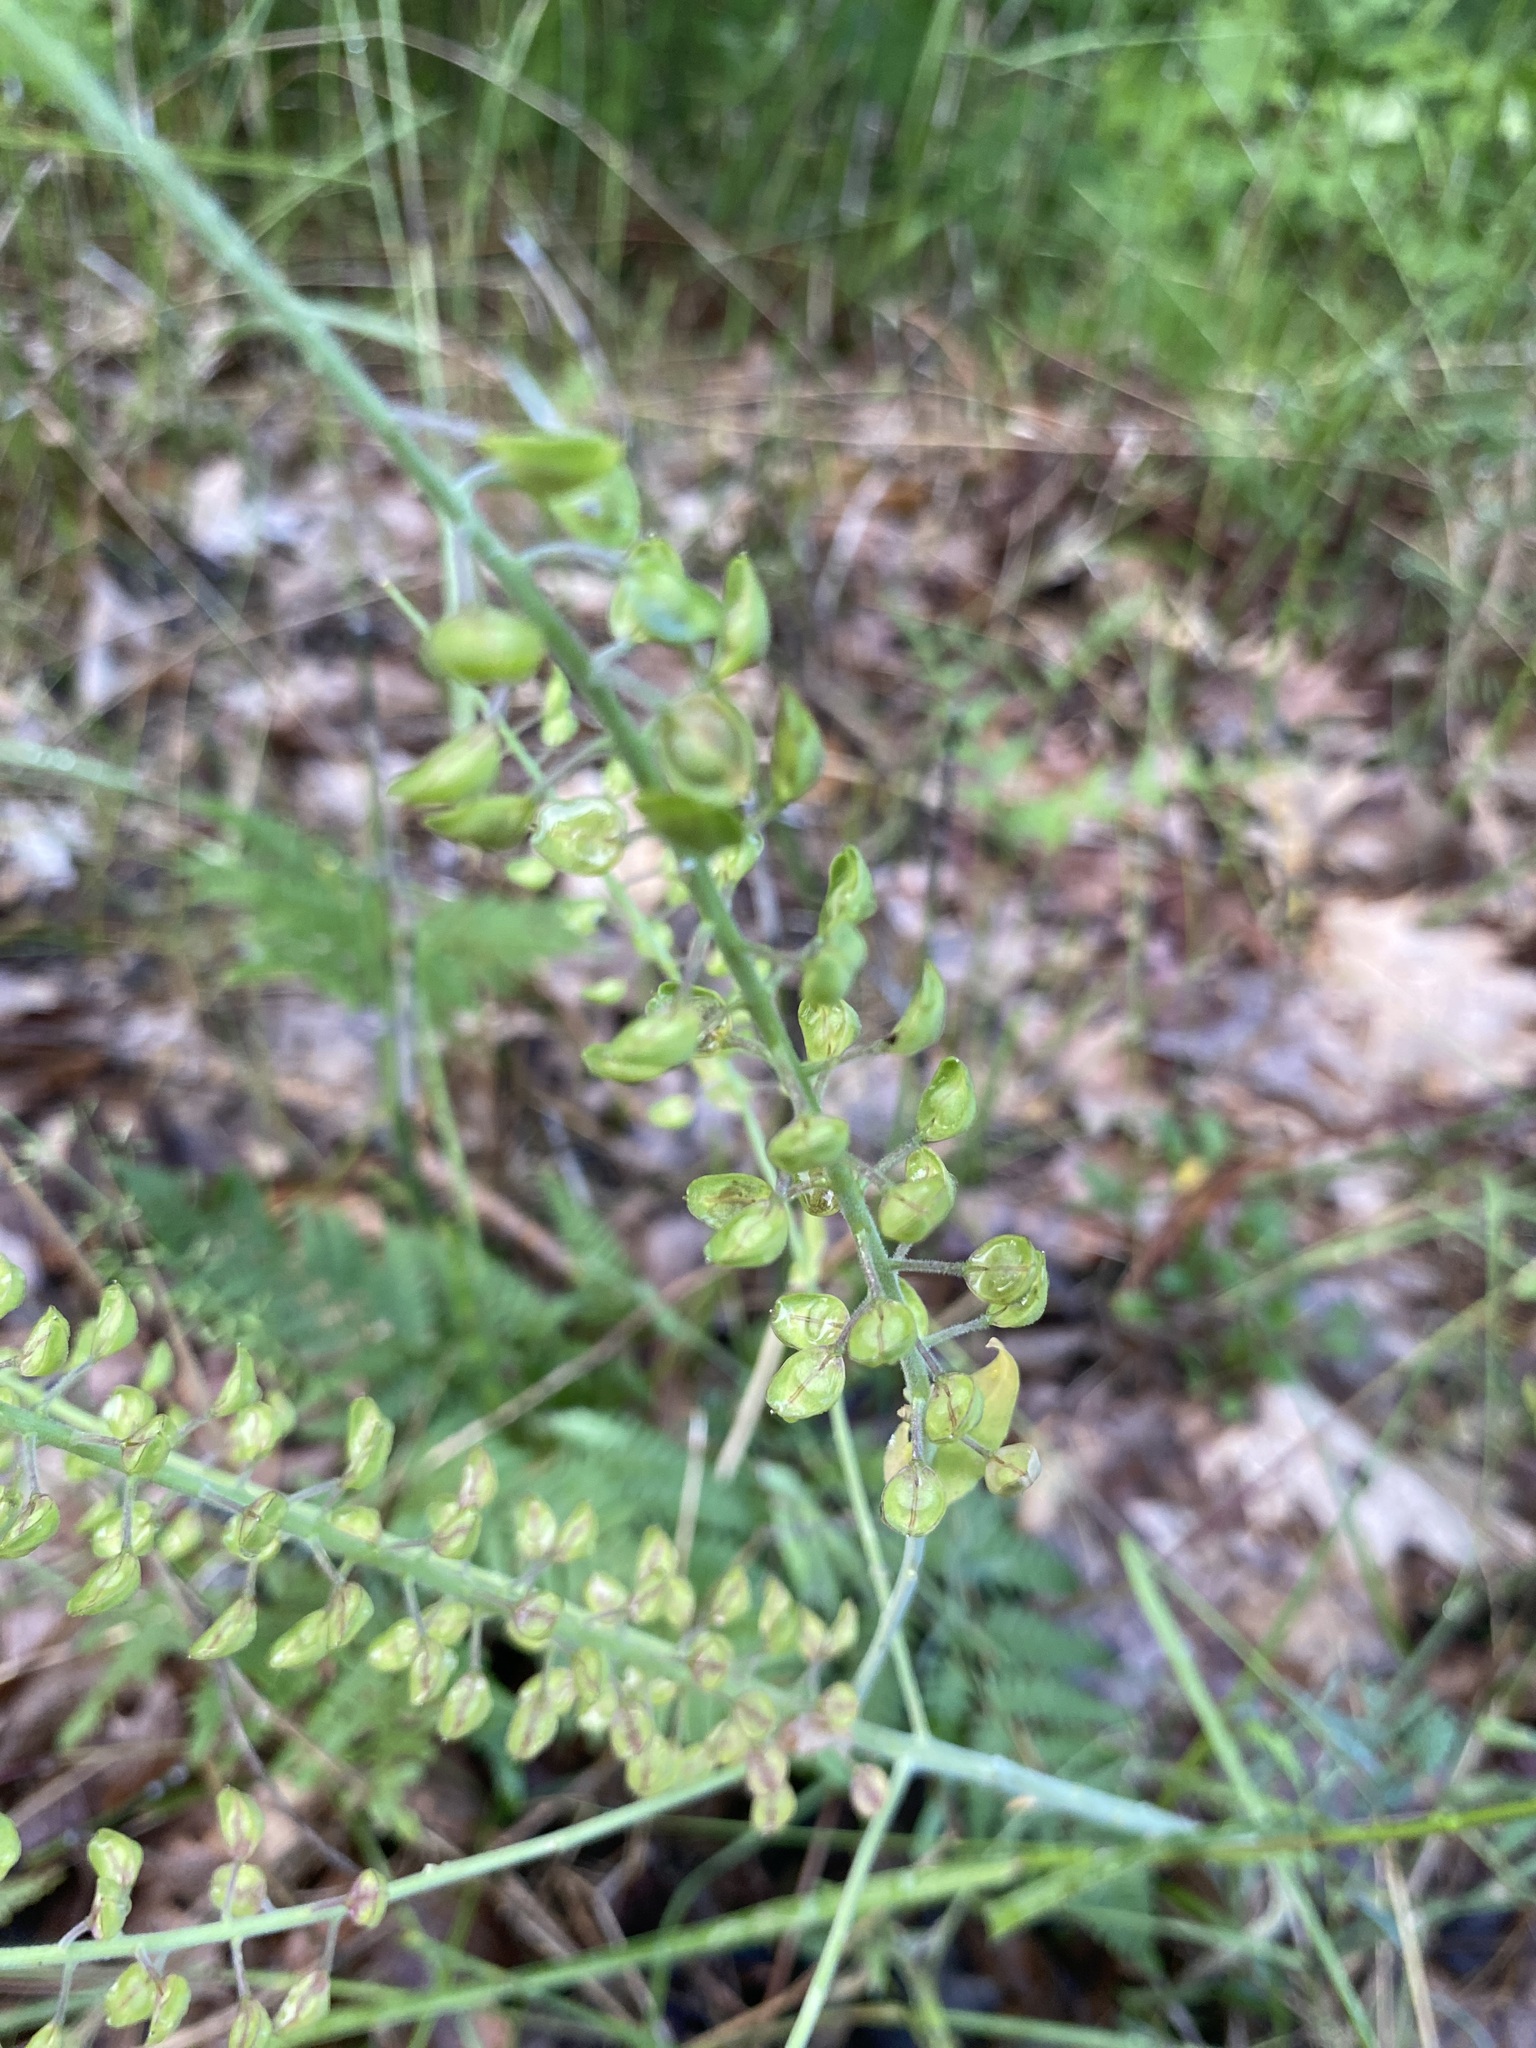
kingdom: Plantae
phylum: Tracheophyta
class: Magnoliopsida
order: Brassicales
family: Brassicaceae
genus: Lepidium
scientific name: Lepidium campestre
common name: Field pepperwort
